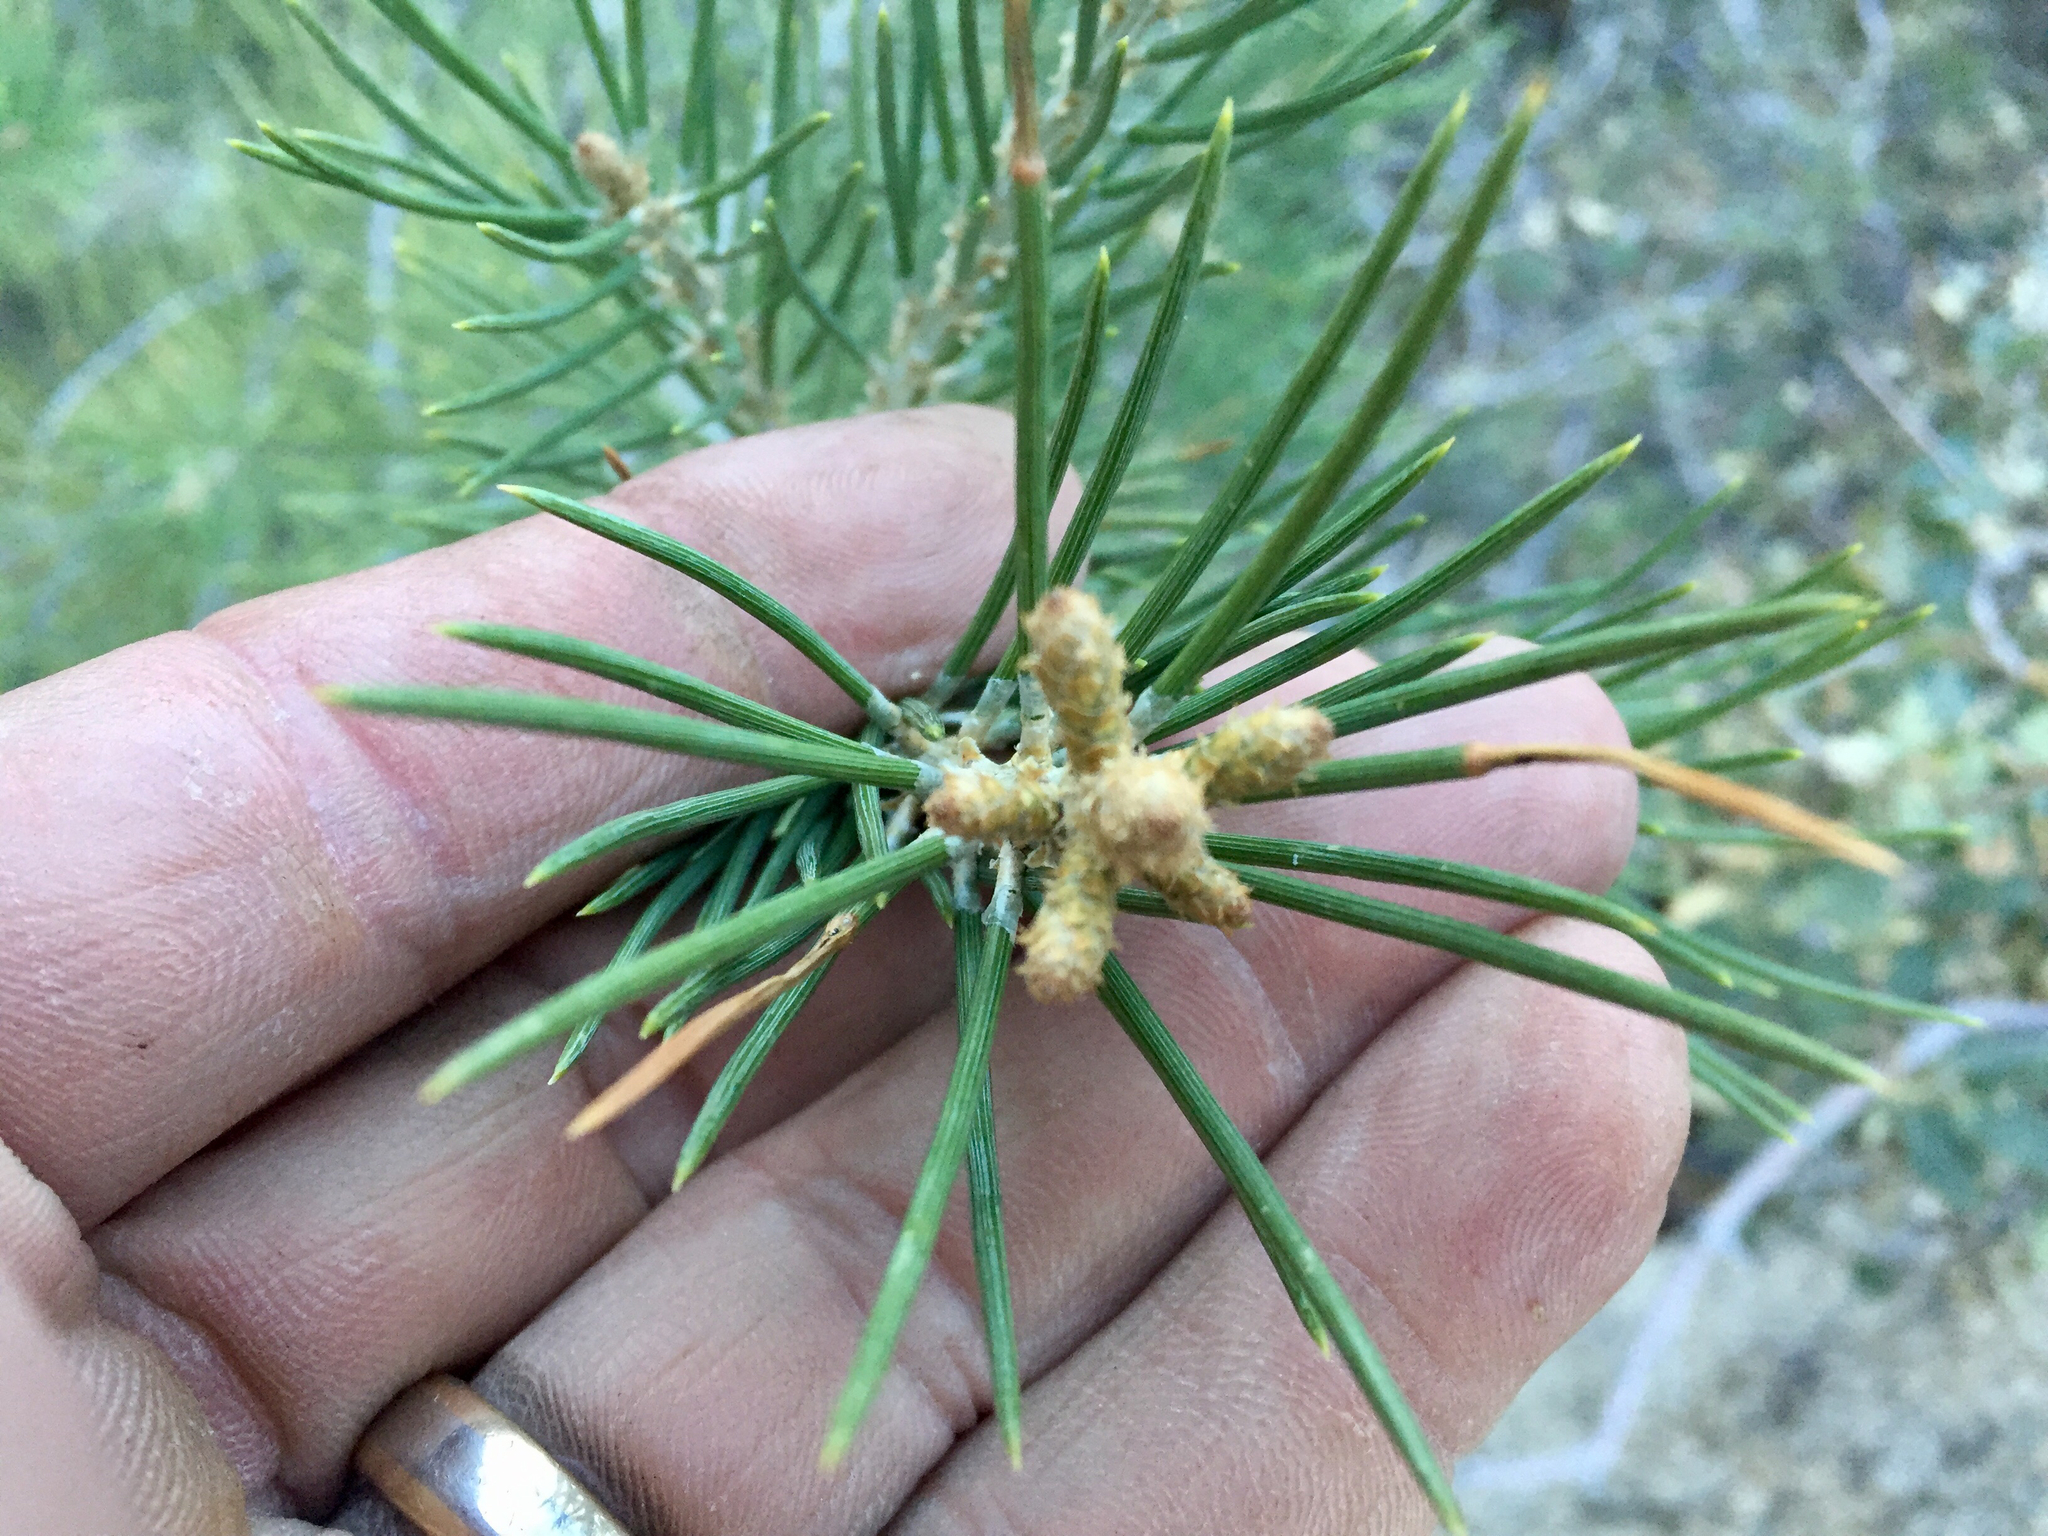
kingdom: Plantae
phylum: Tracheophyta
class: Pinopsida
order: Pinales
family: Pinaceae
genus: Pinus
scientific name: Pinus monophylla
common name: One-leaved nut pine
